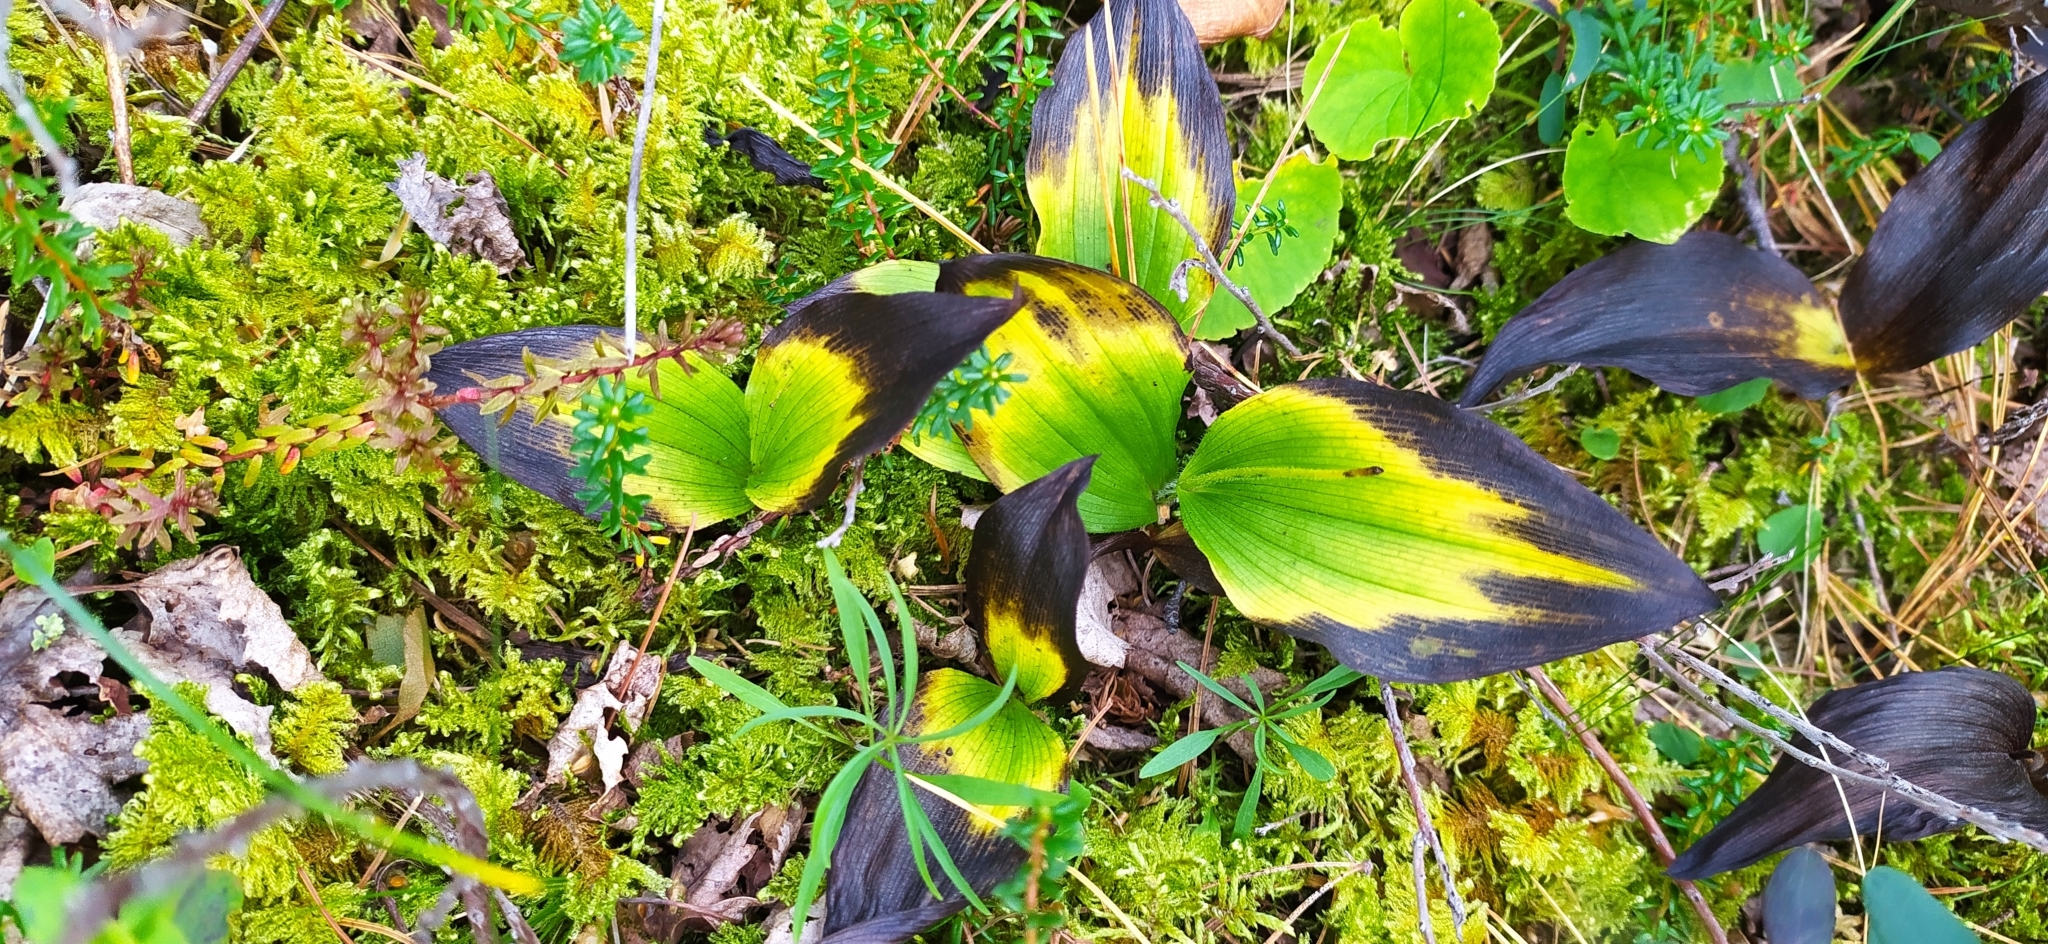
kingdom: Plantae
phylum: Tracheophyta
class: Liliopsida
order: Asparagales
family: Orchidaceae
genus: Cypripedium
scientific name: Cypripedium guttatum
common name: Pink lady slipper
